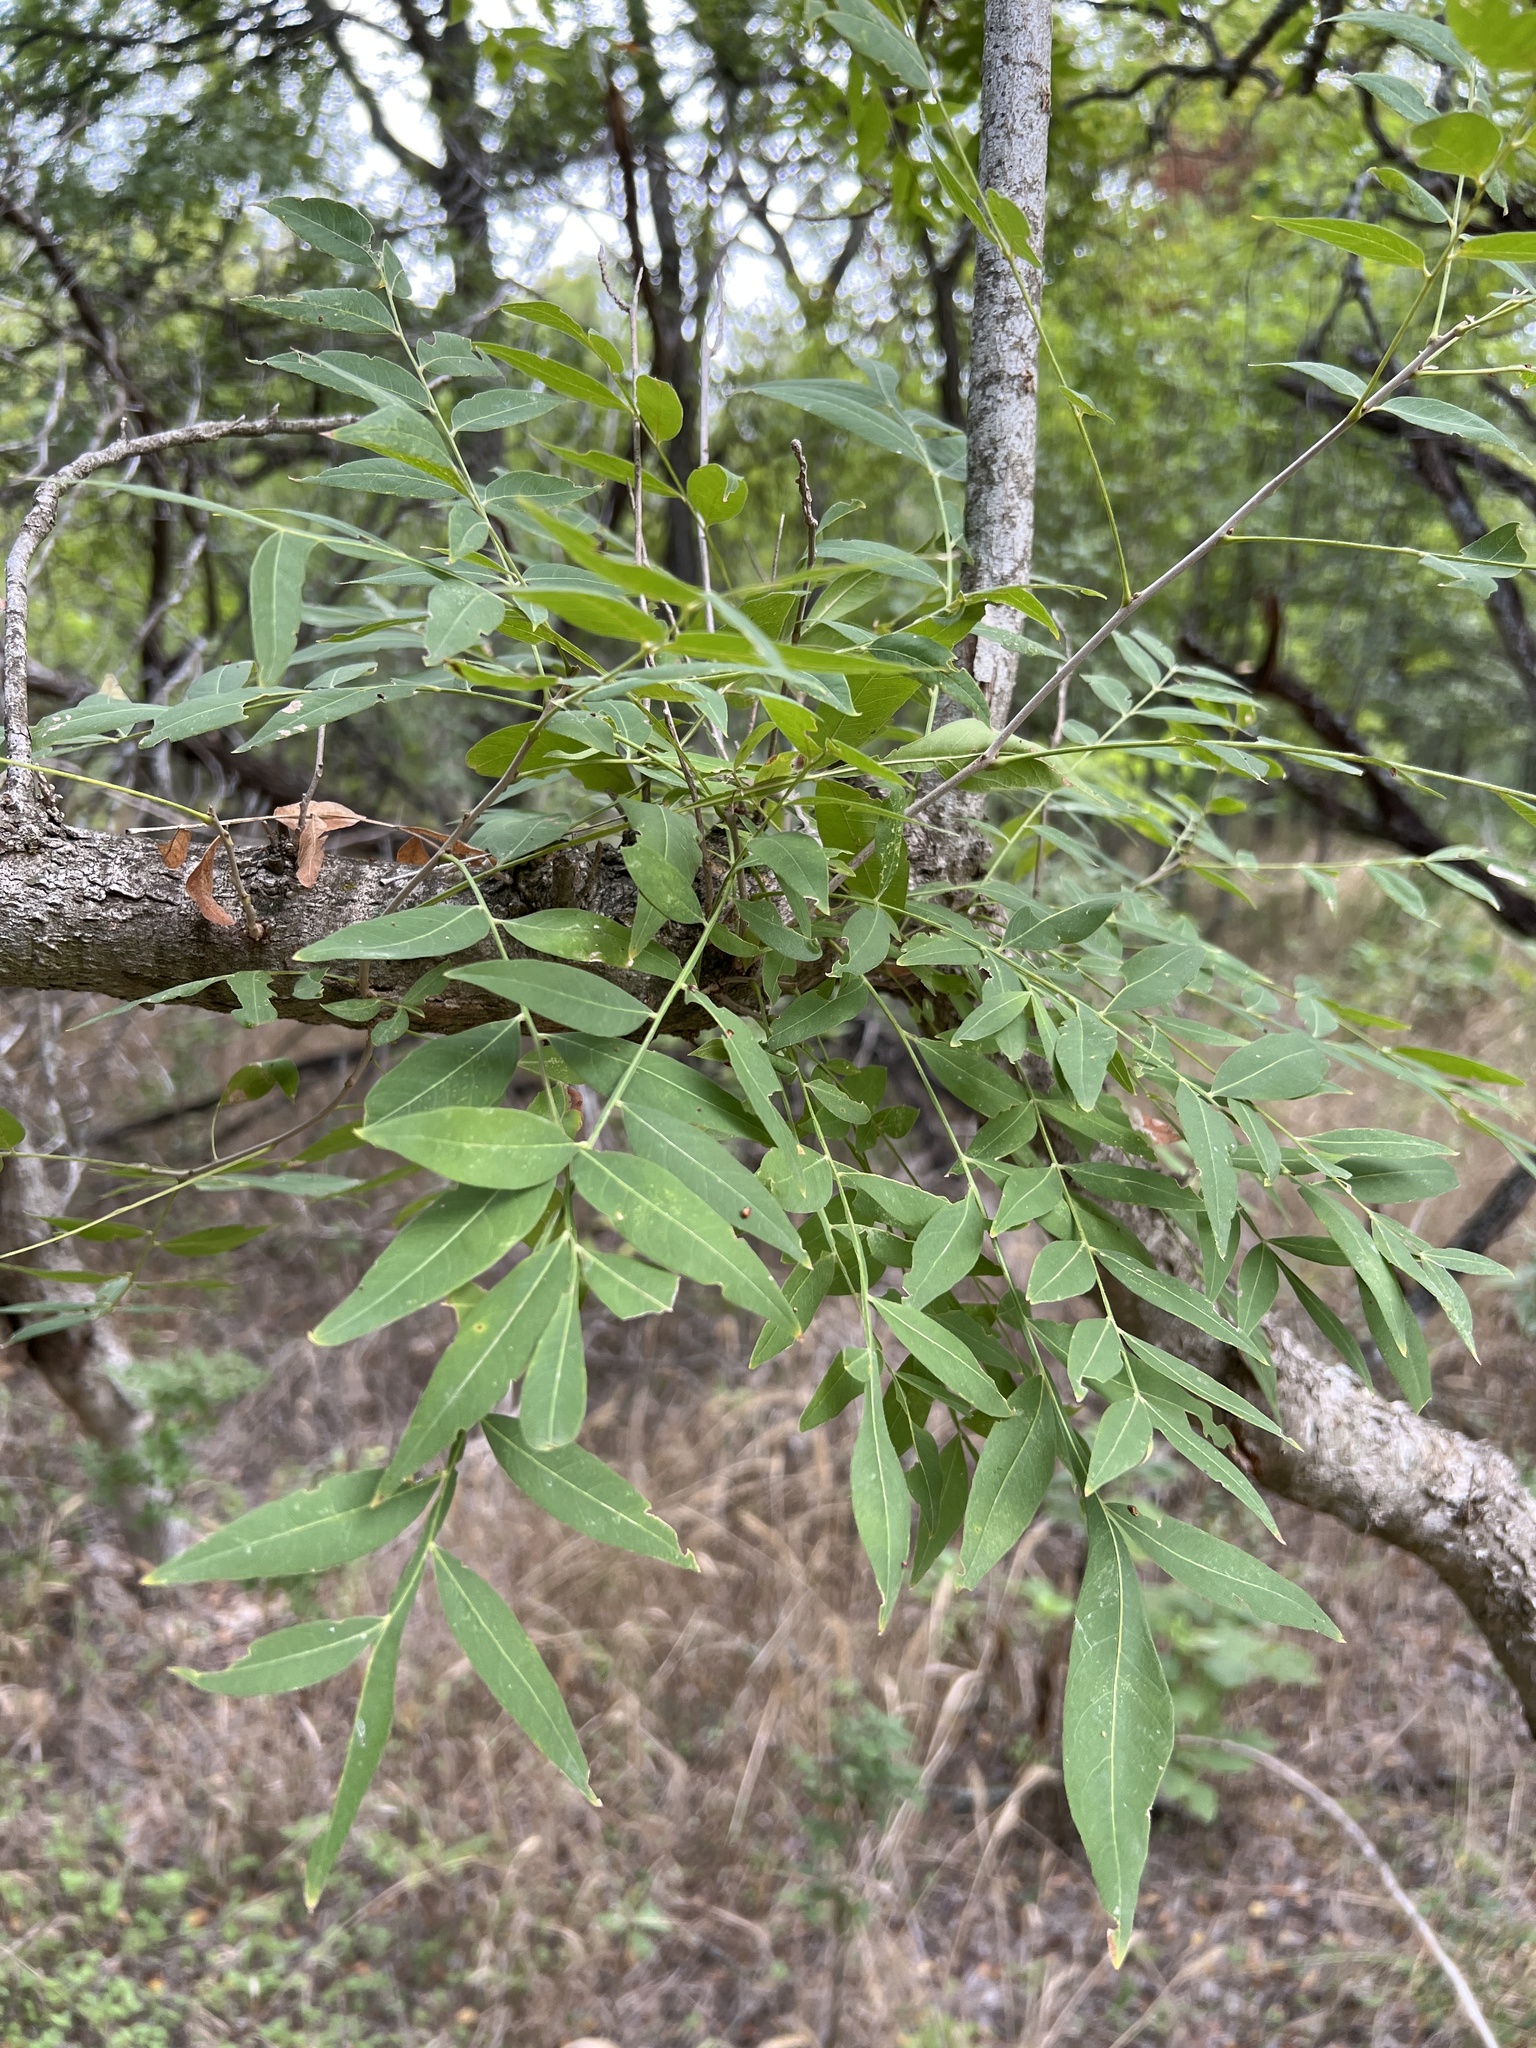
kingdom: Plantae
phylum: Tracheophyta
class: Magnoliopsida
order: Sapindales
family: Sapindaceae
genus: Sapindus
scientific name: Sapindus drummondii
